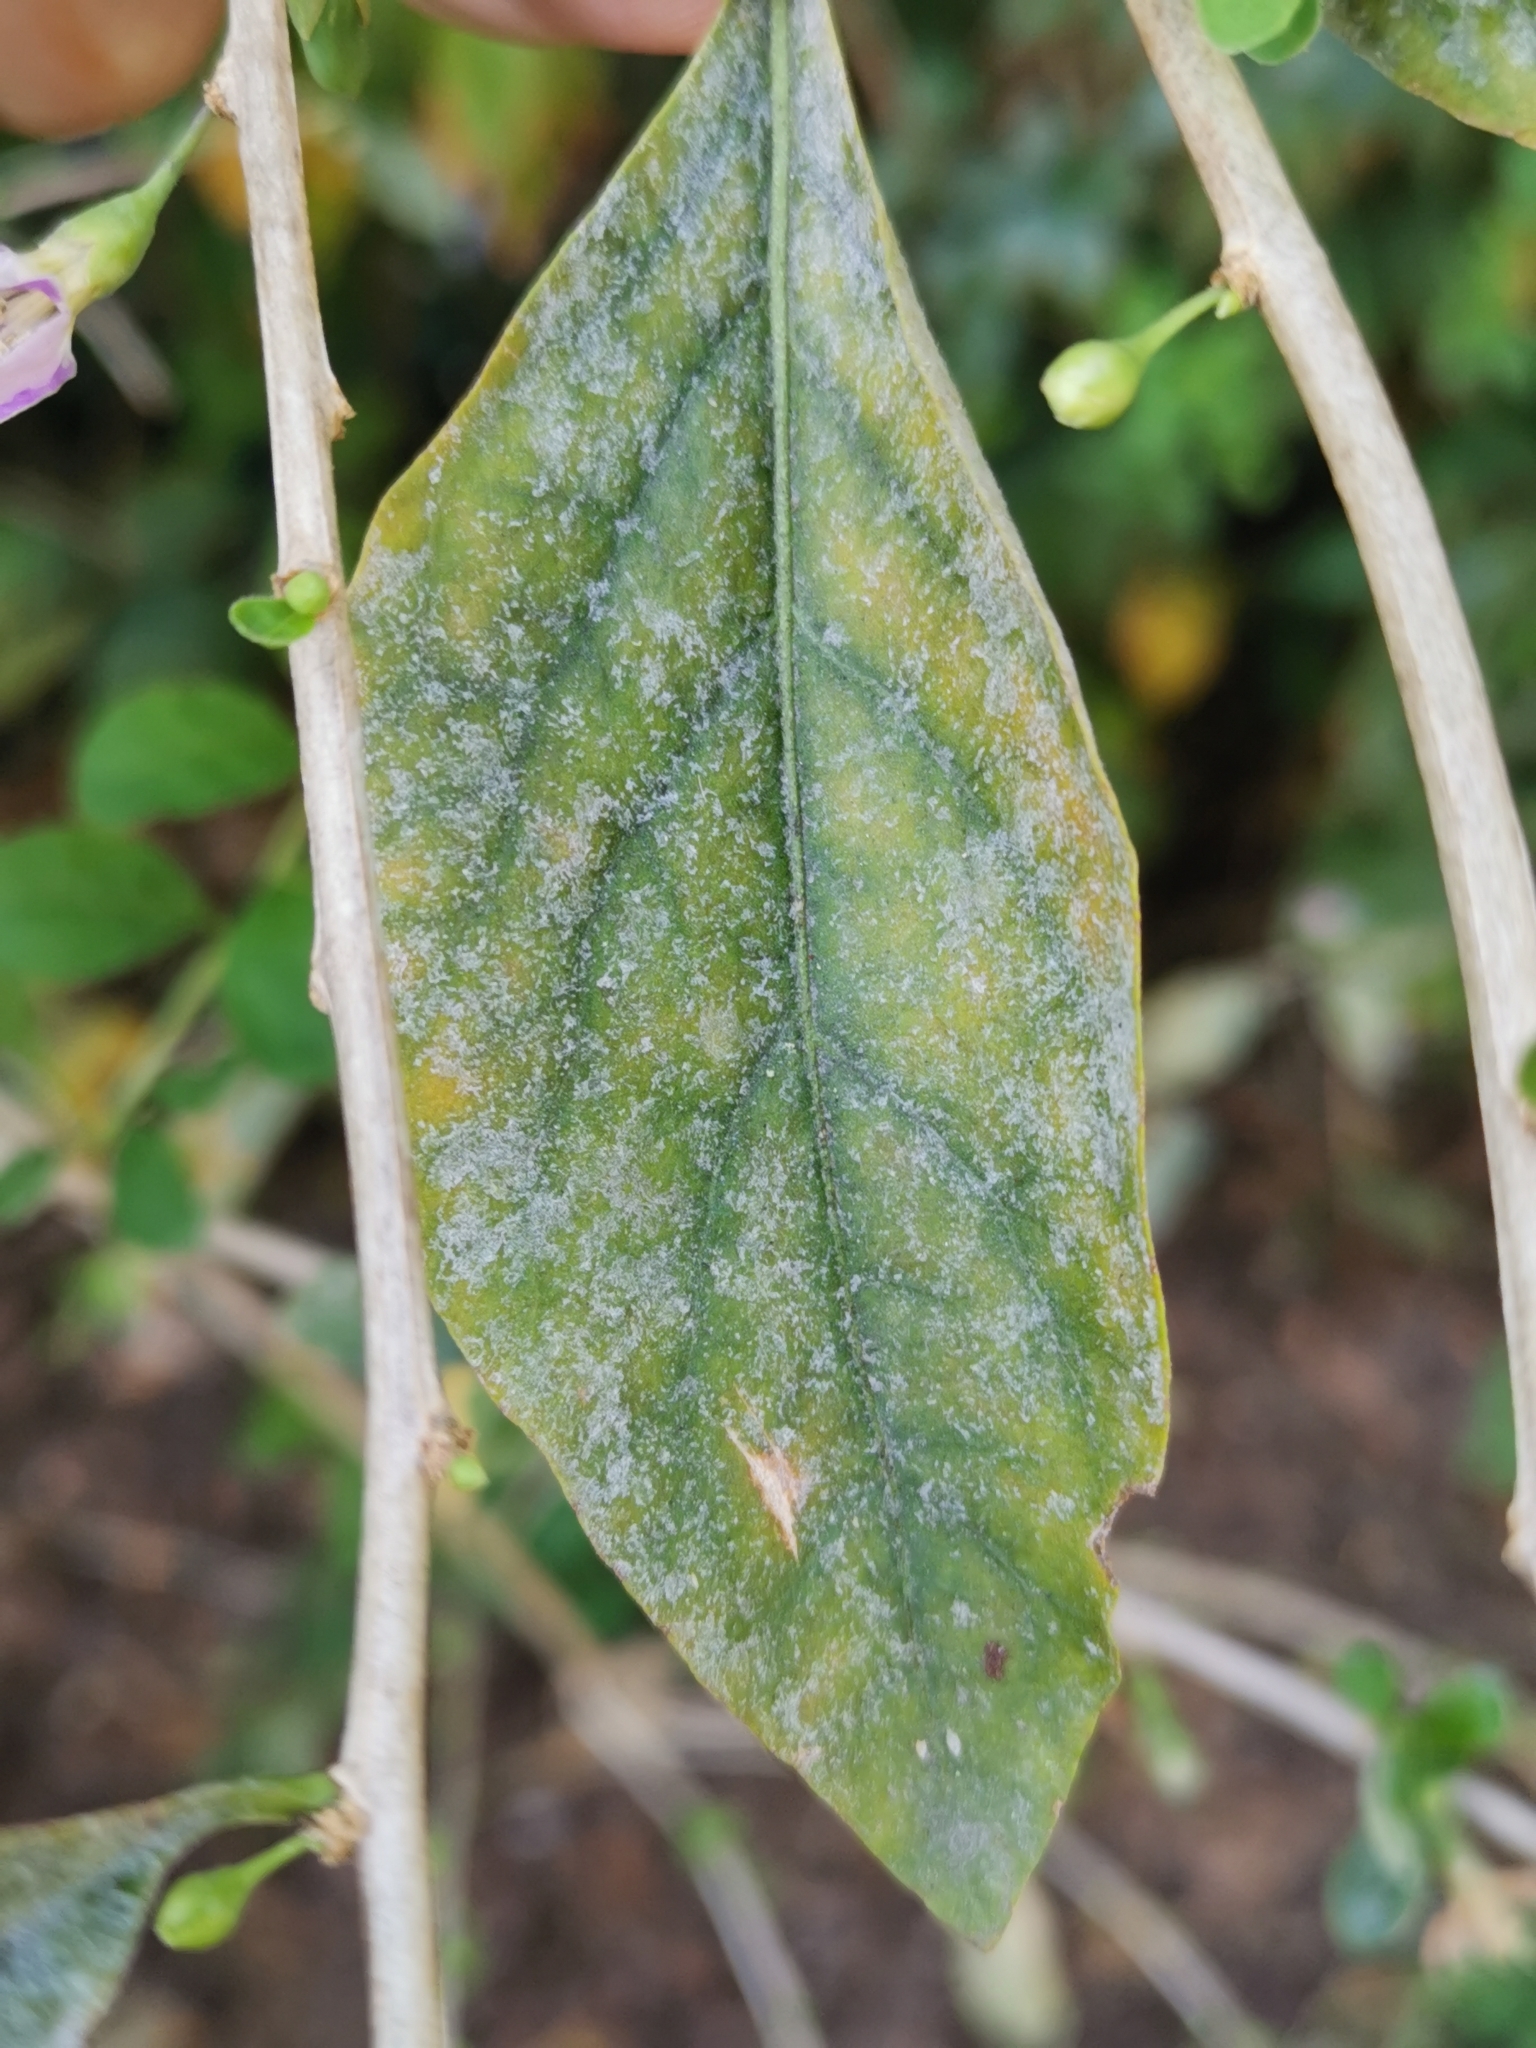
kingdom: Fungi
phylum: Ascomycota
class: Leotiomycetes
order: Helotiales
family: Erysiphaceae
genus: Erysiphe
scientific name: Erysiphe mougeotii
